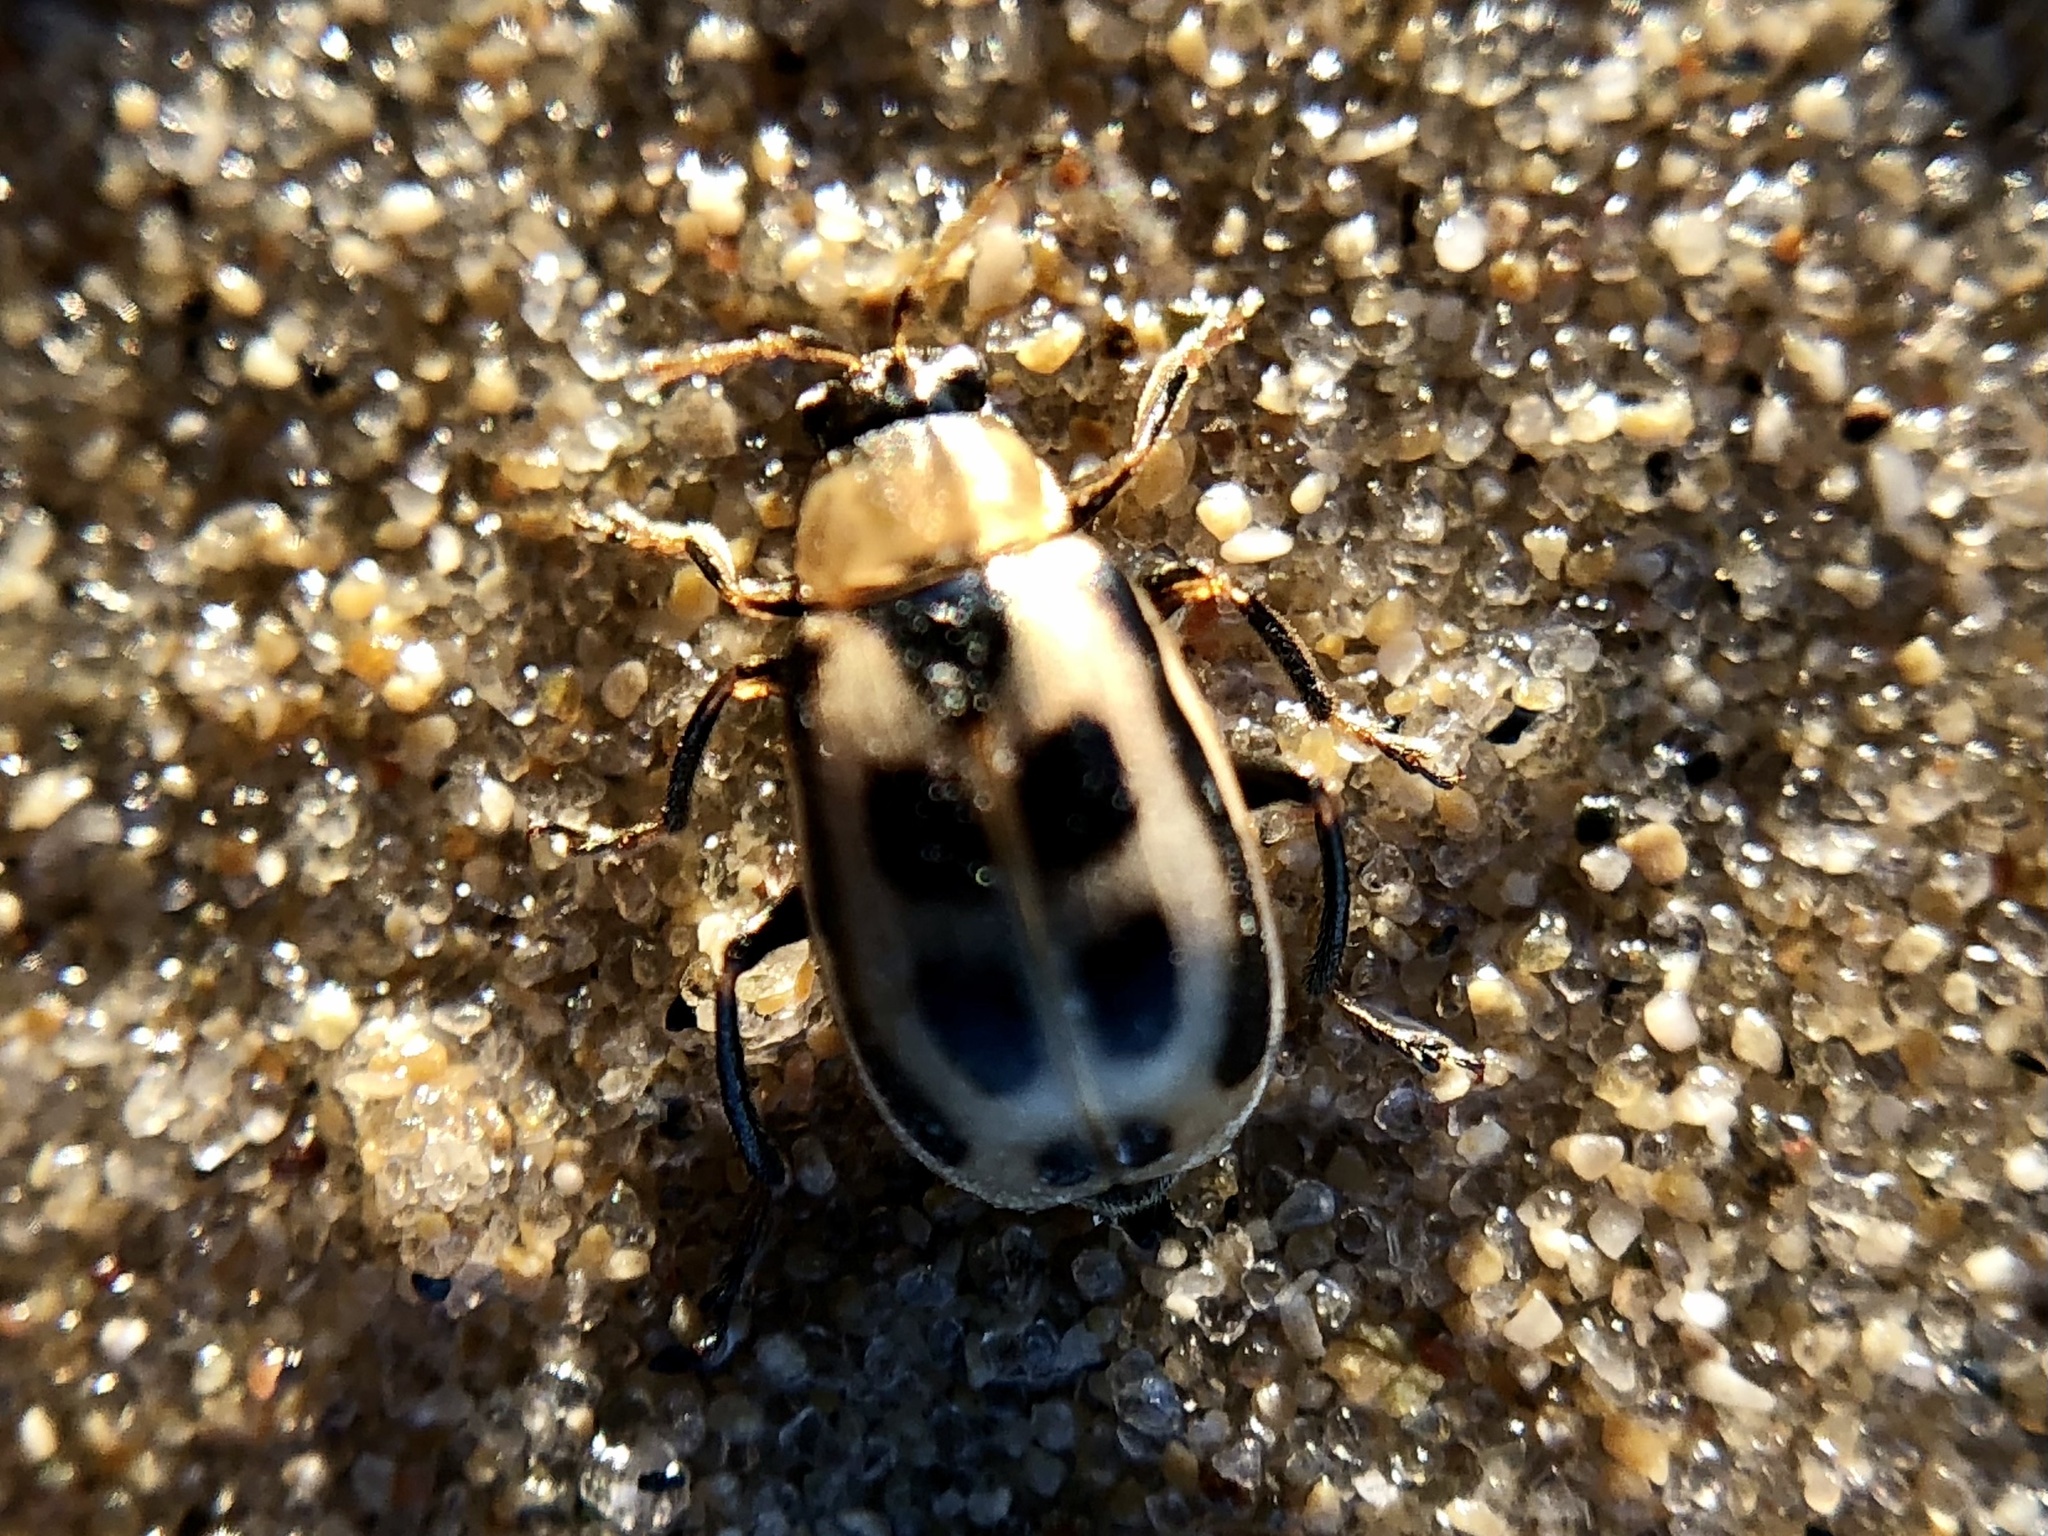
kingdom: Animalia
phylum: Arthropoda
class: Insecta
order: Coleoptera
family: Chrysomelidae
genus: Cerotoma
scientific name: Cerotoma trifurcata
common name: Bean leaf beetle
